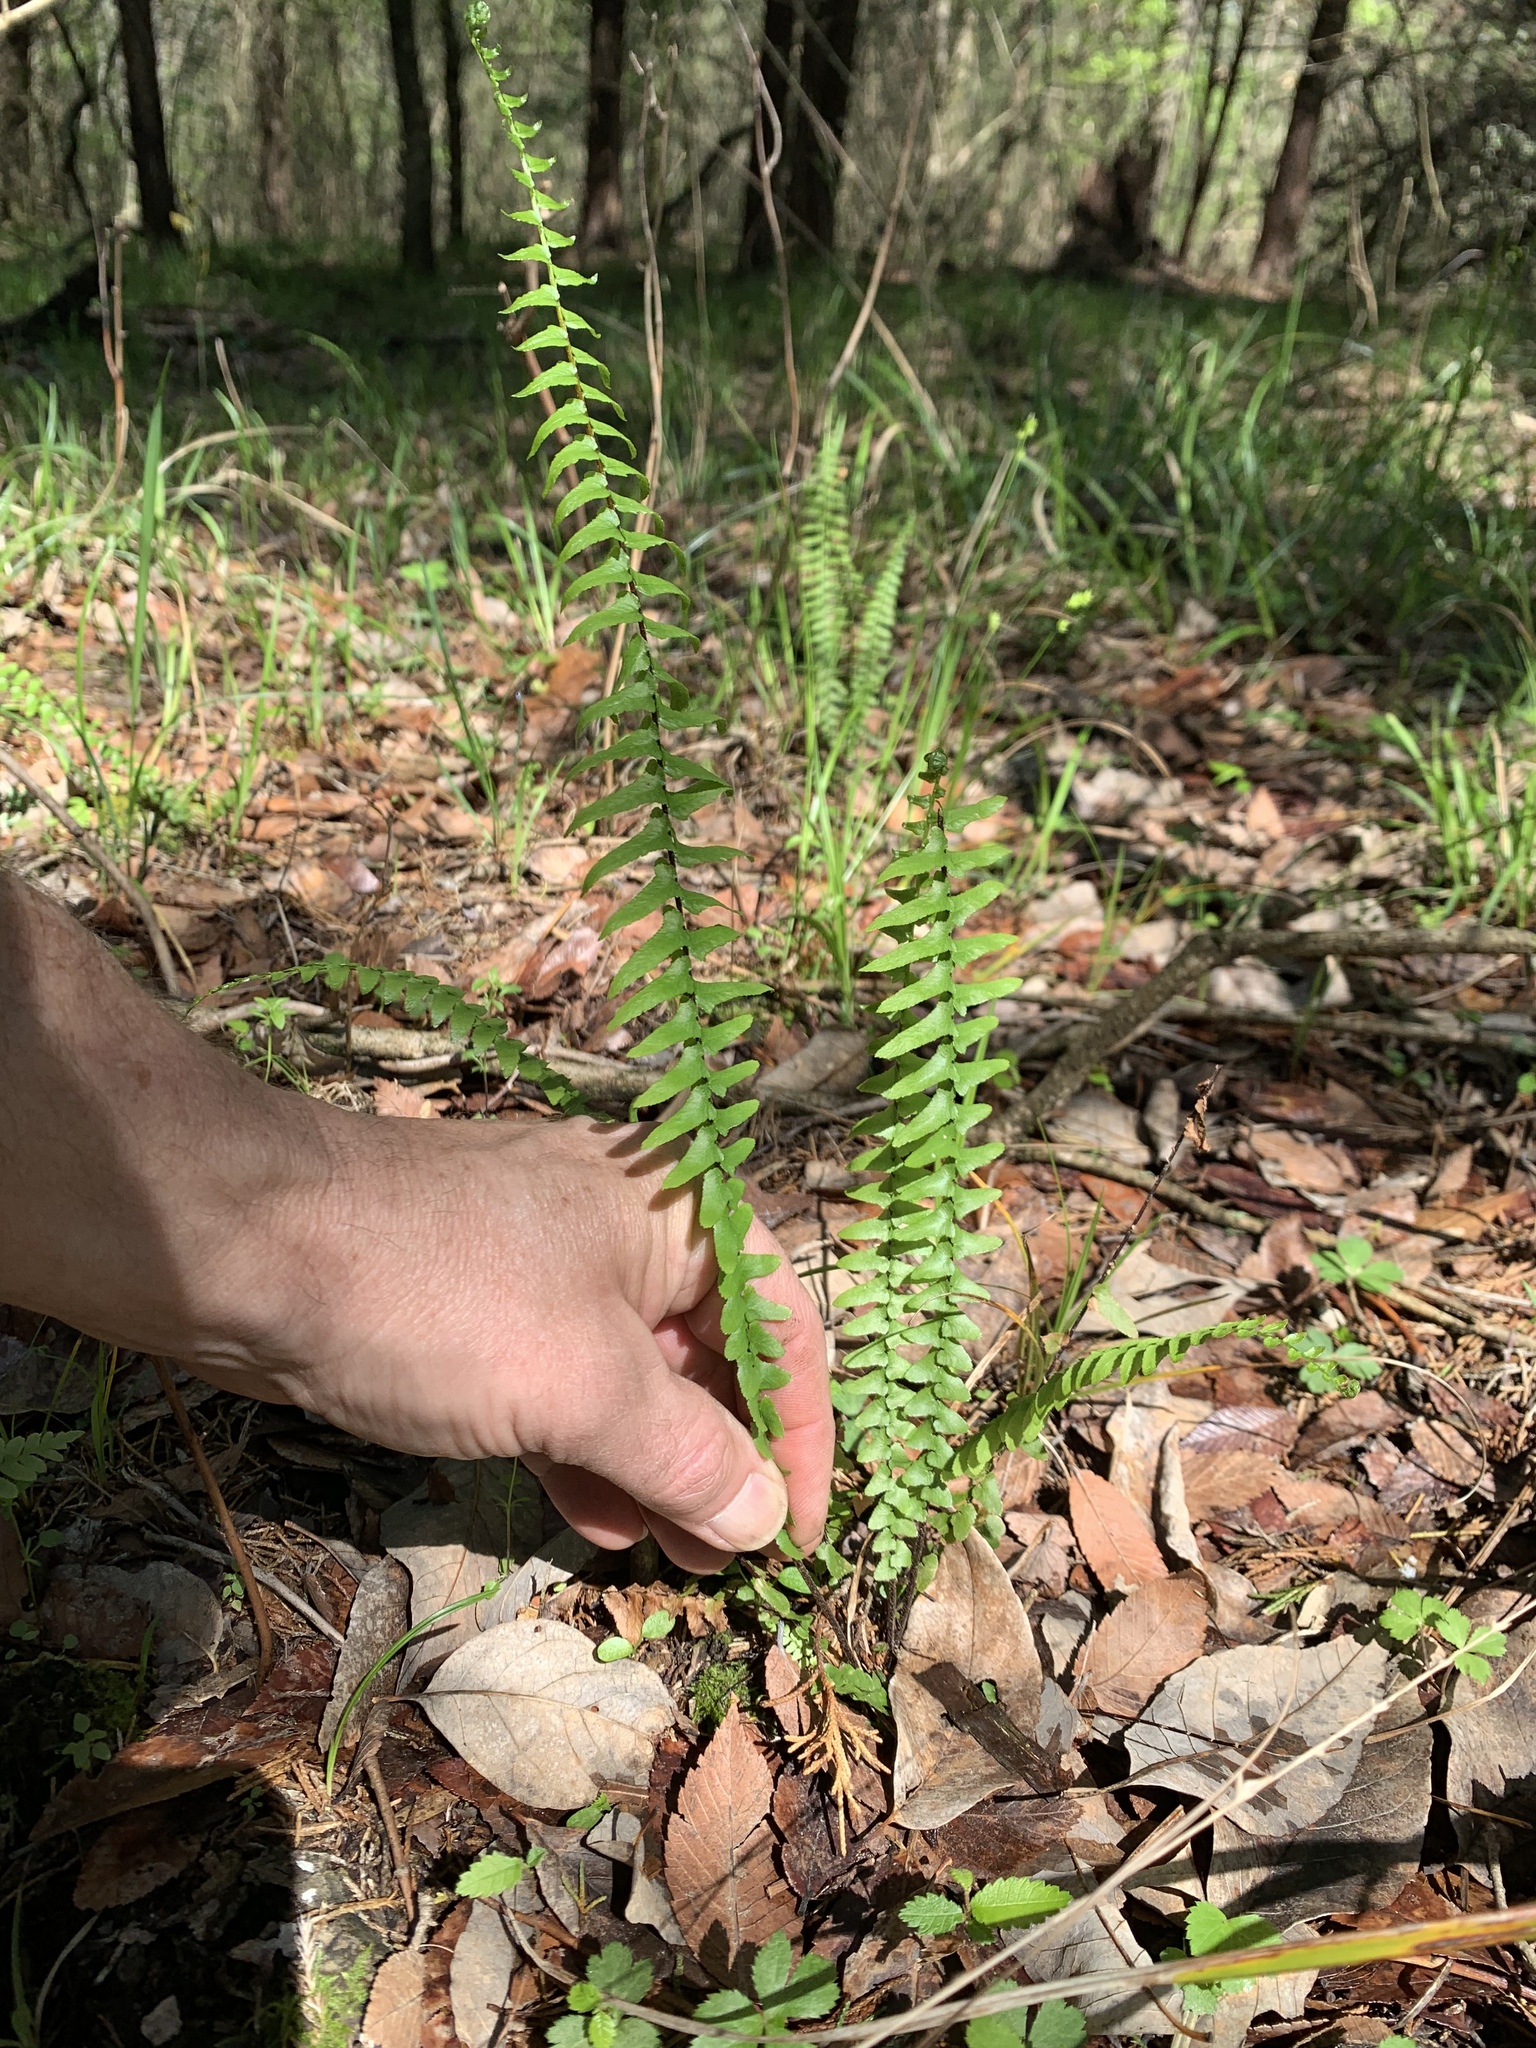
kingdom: Plantae
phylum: Tracheophyta
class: Polypodiopsida
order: Polypodiales
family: Aspleniaceae
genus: Asplenium
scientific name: Asplenium platyneuron
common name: Ebony spleenwort
